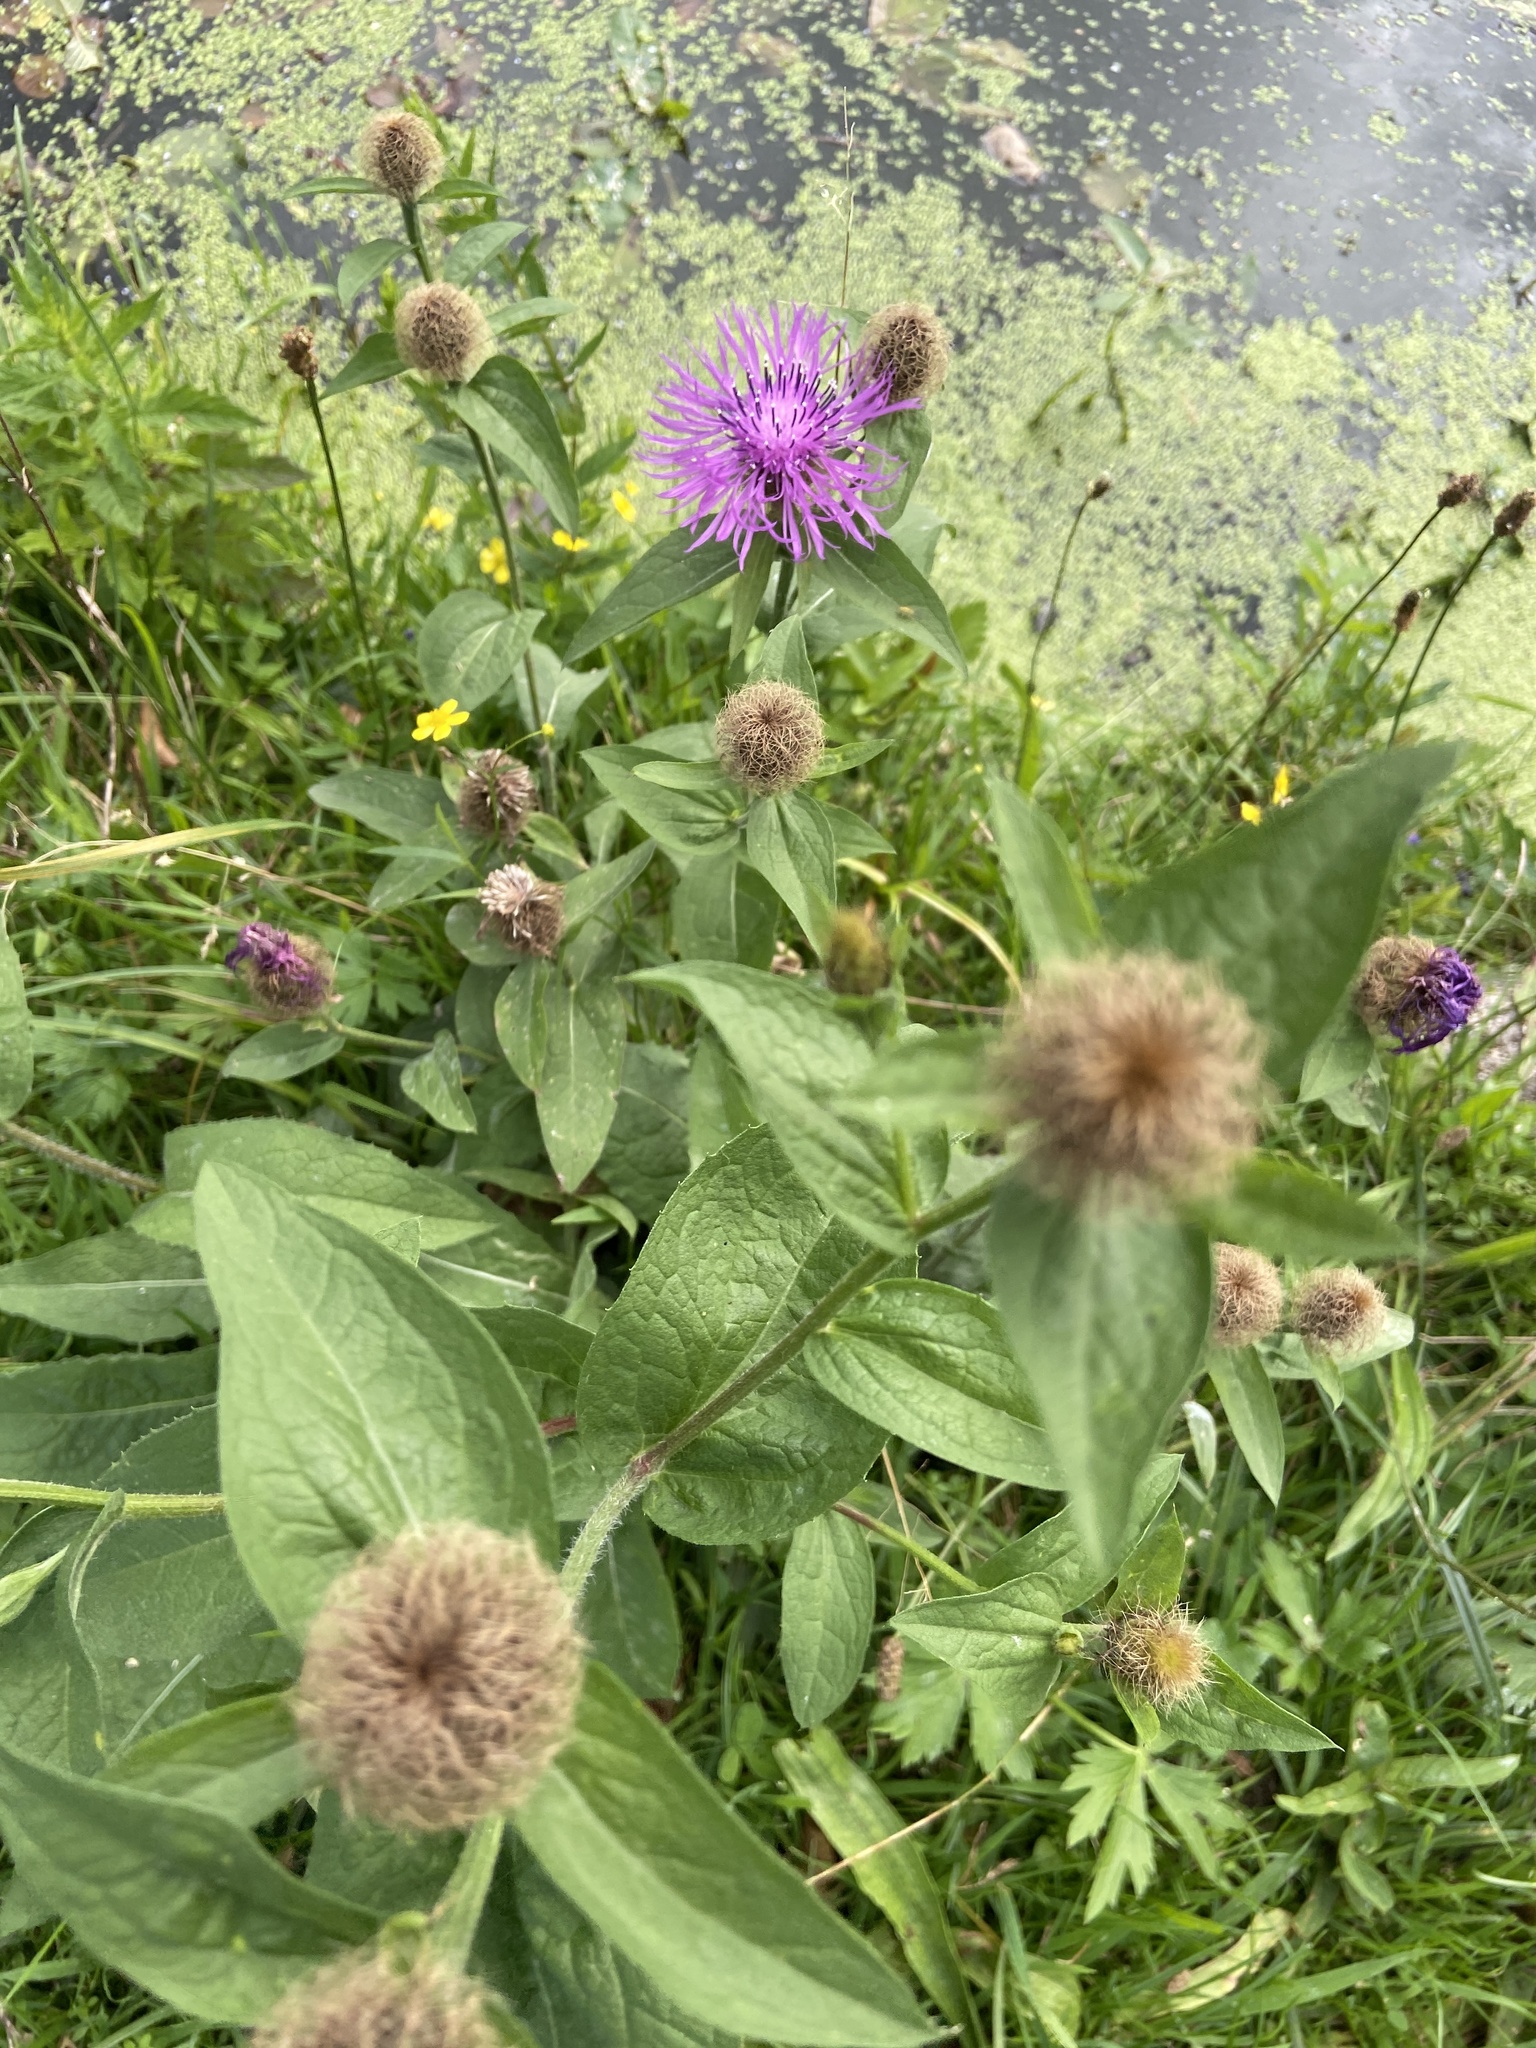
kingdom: Plantae
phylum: Tracheophyta
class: Magnoliopsida
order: Asterales
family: Asteraceae
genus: Centaurea
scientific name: Centaurea phrygia
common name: Wig knapweed
